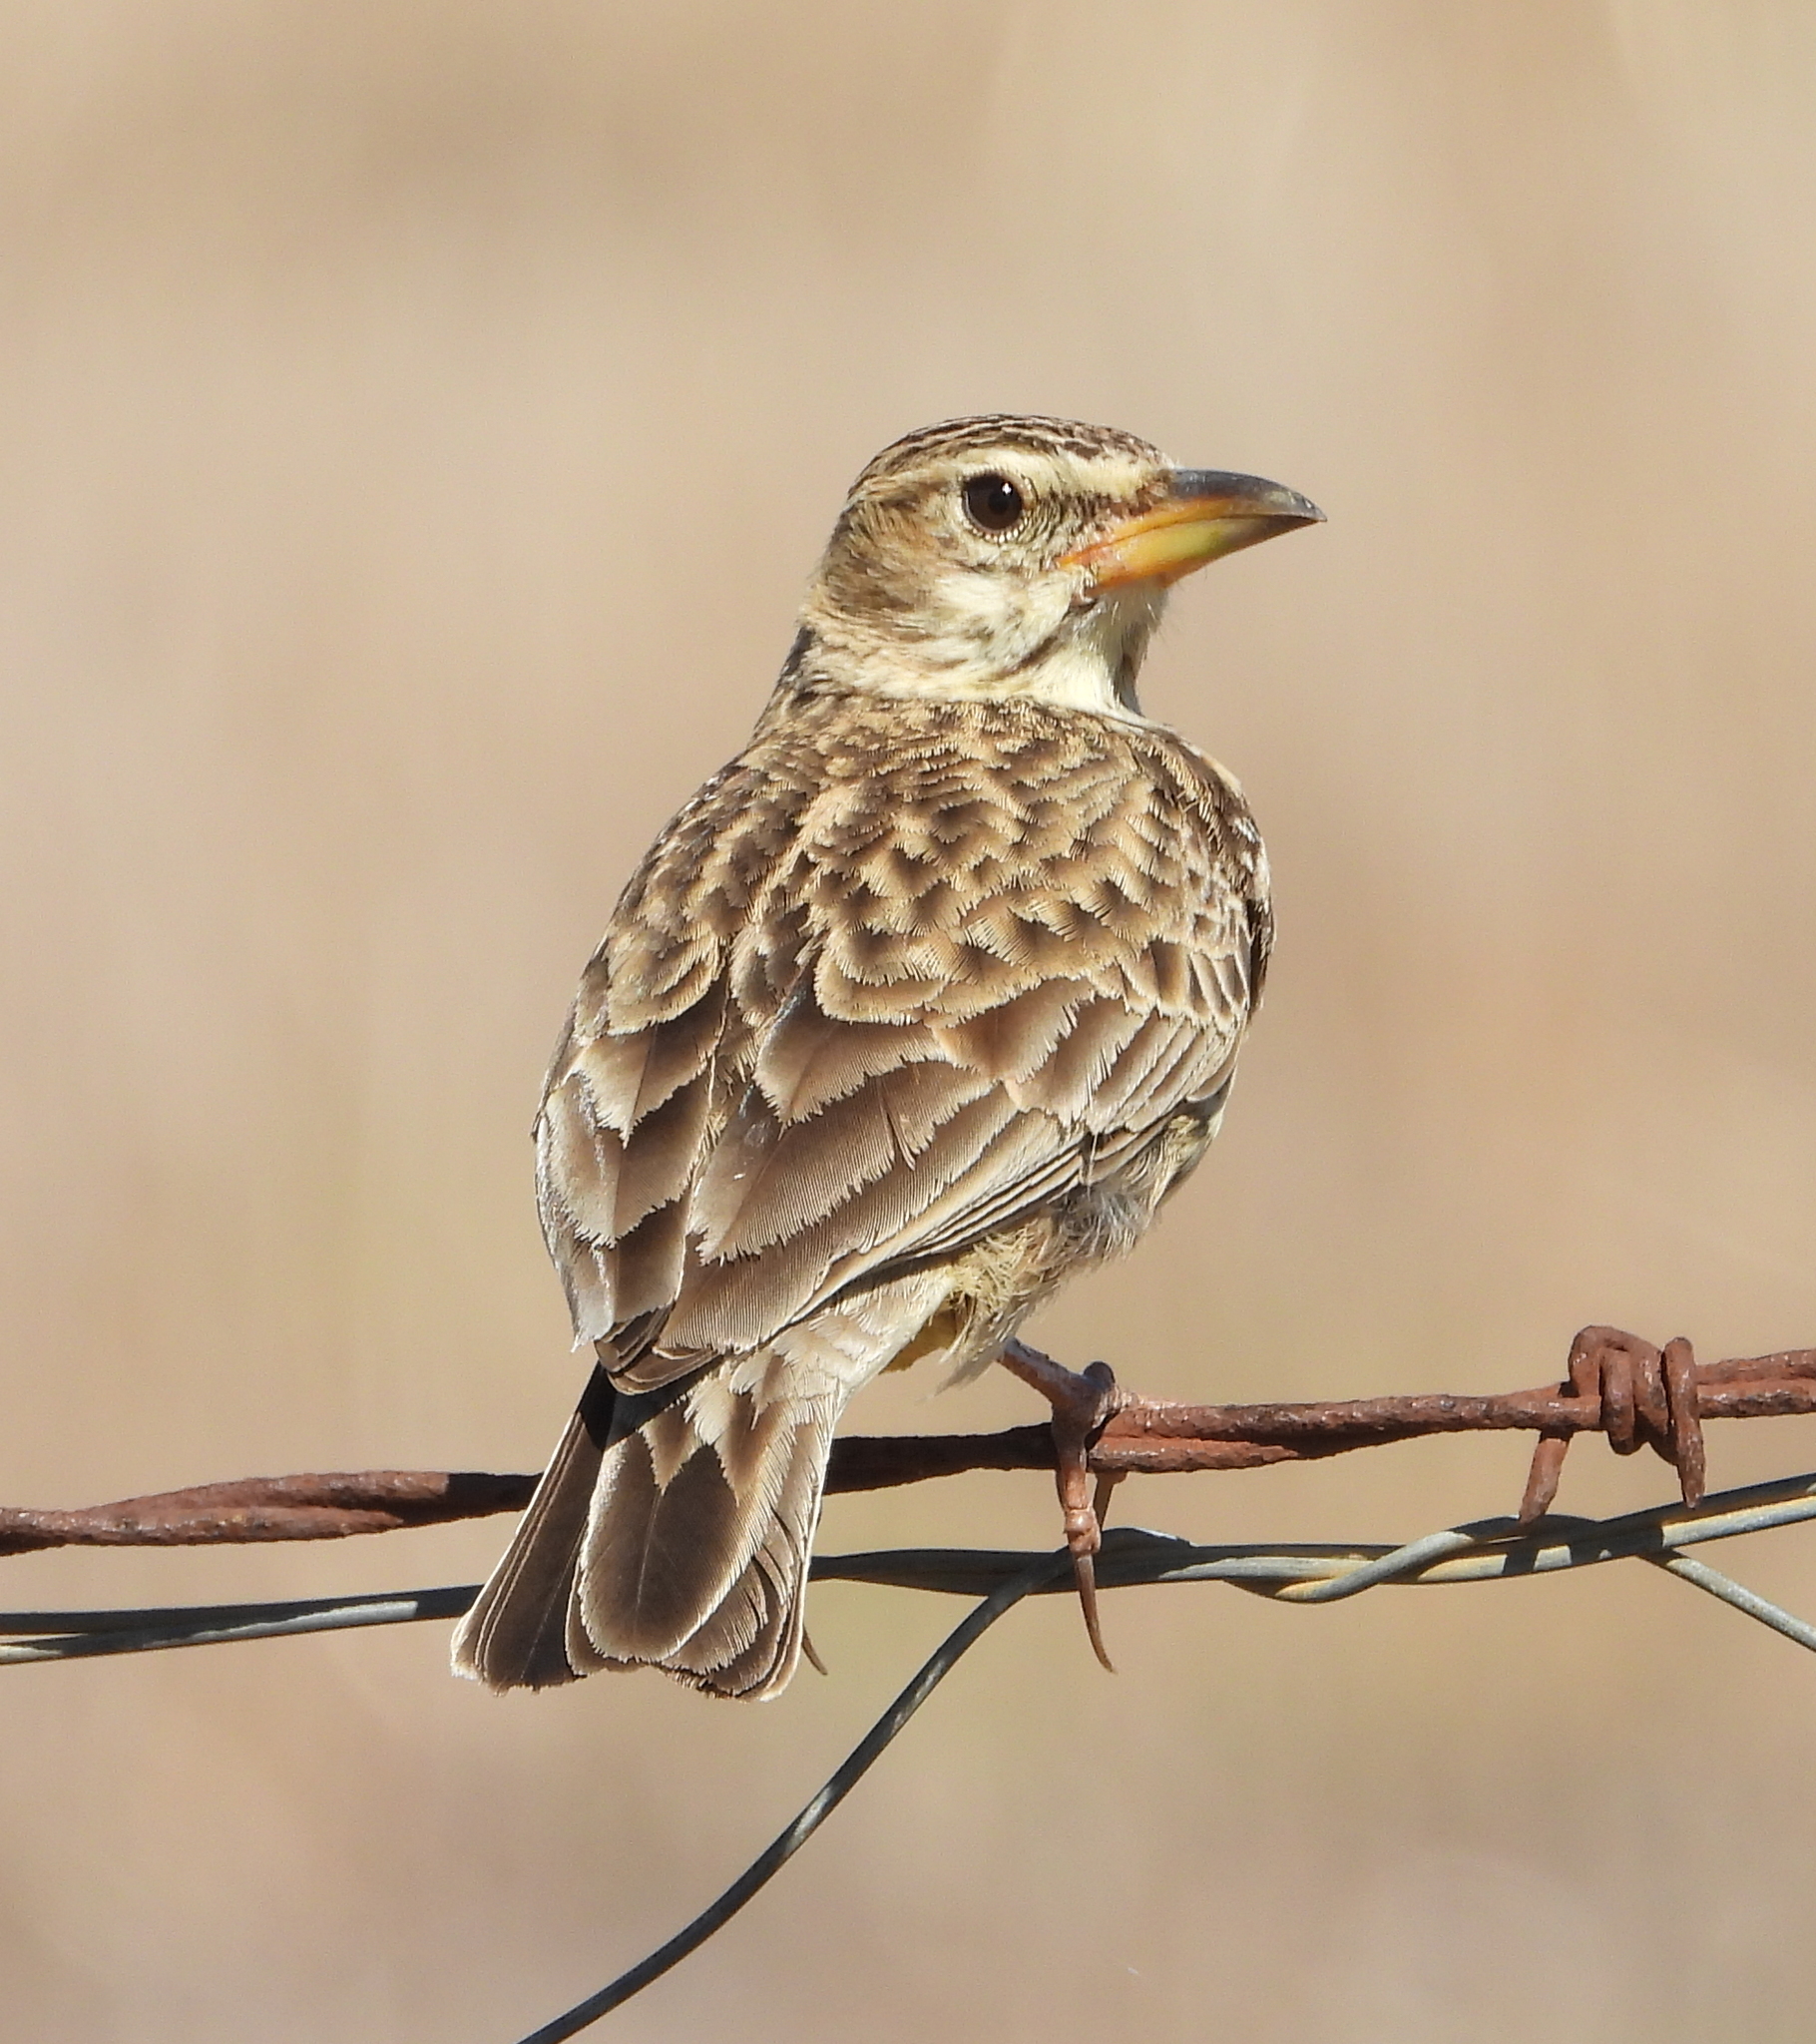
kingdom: Animalia
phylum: Chordata
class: Aves
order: Passeriformes
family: Alaudidae
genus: Galerida
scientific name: Galerida magnirostris
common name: Large-billed lark
